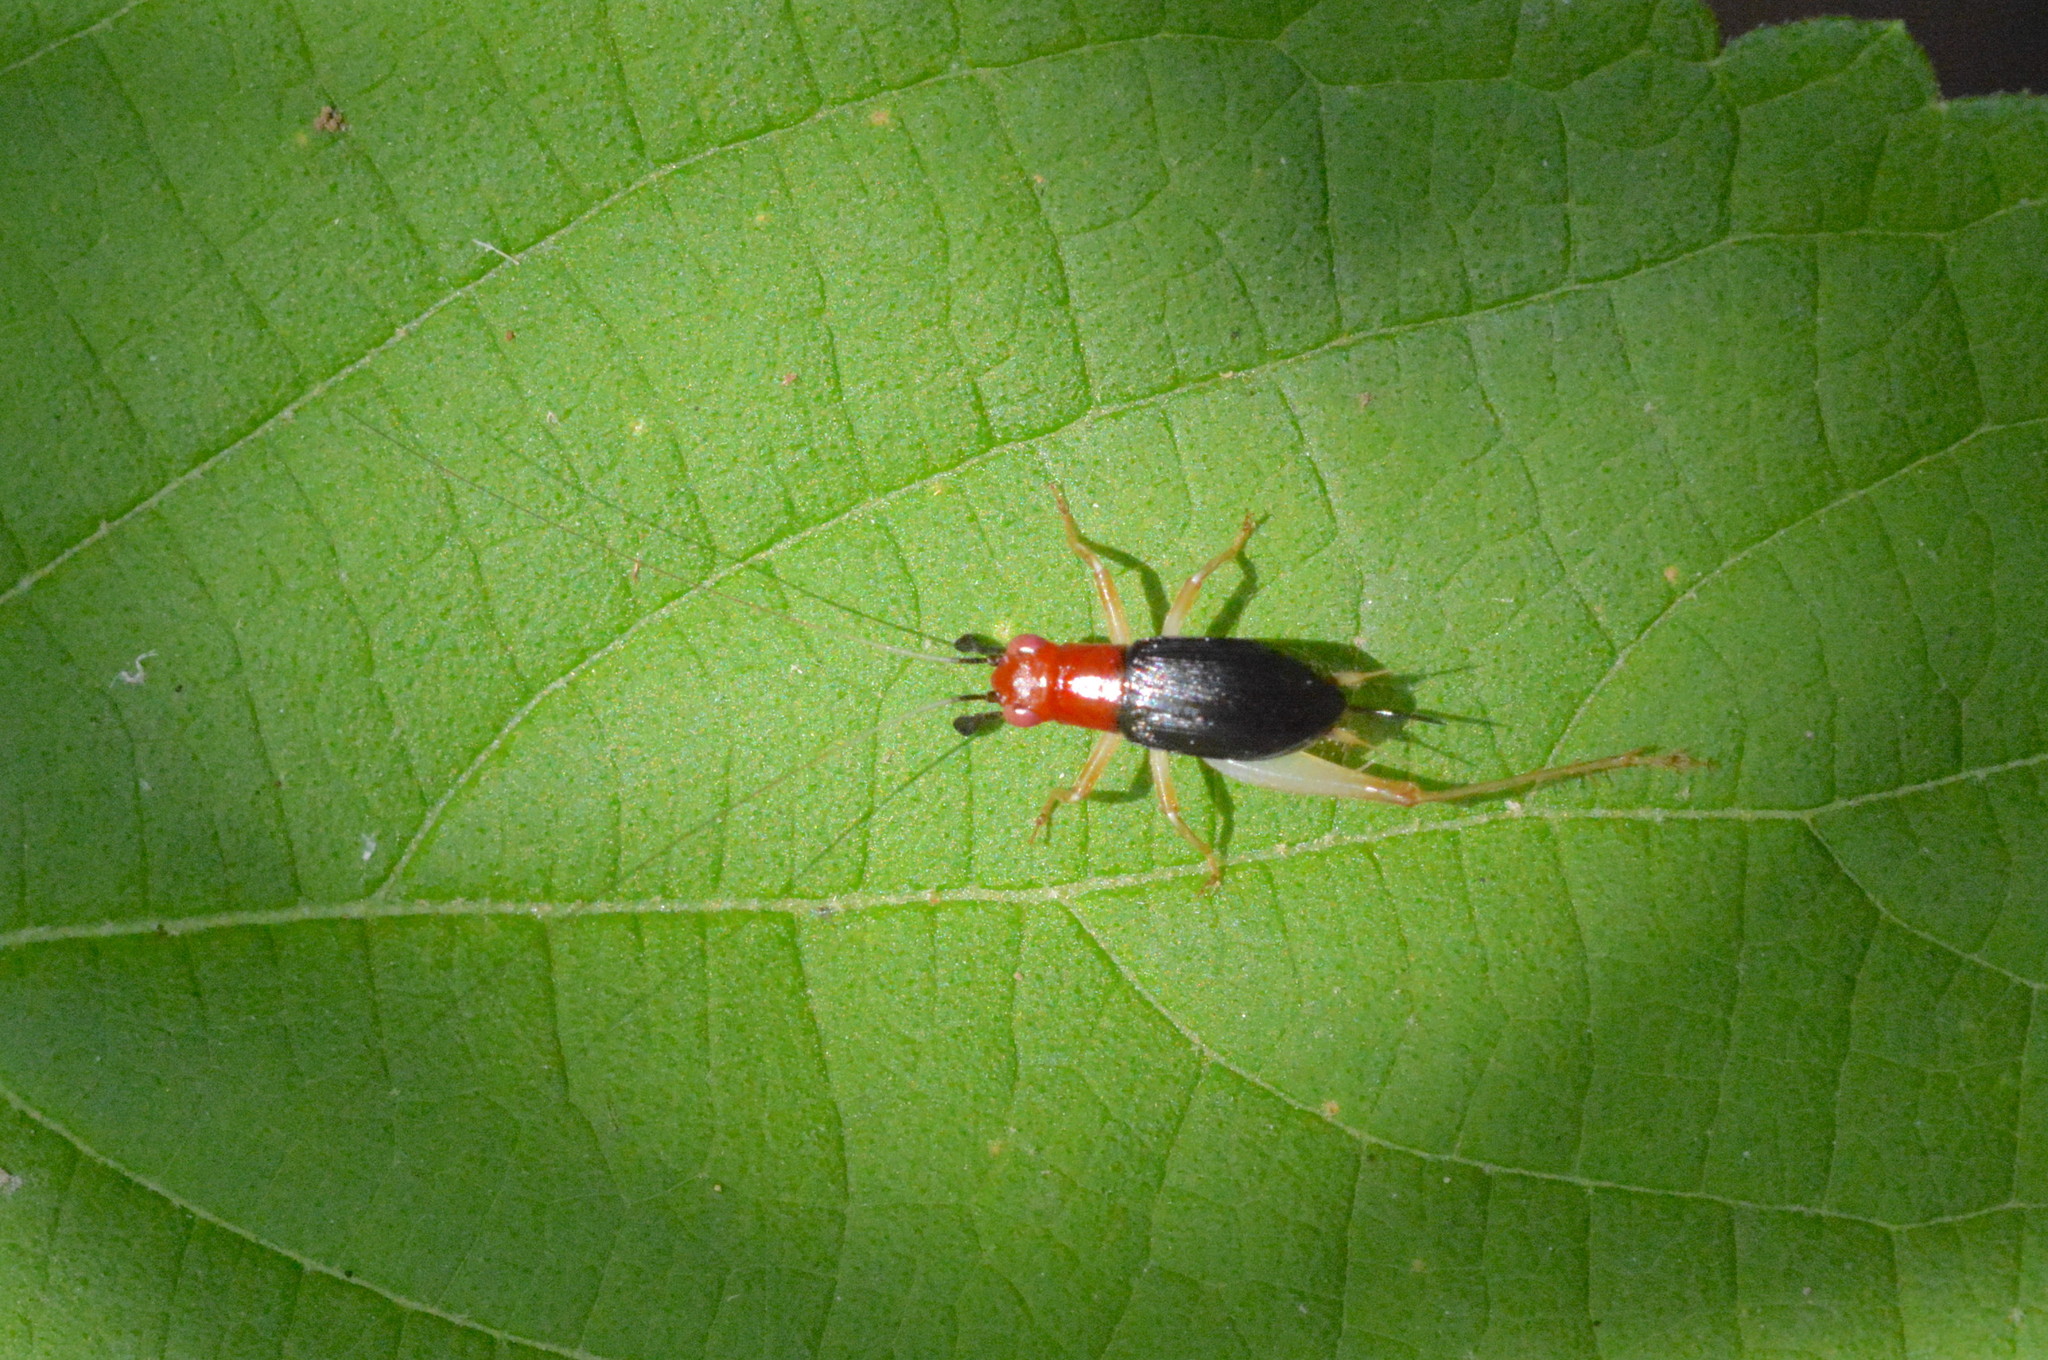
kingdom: Animalia
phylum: Arthropoda
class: Insecta
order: Orthoptera
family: Trigonidiidae
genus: Phyllopalpus
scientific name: Phyllopalpus pulchellus
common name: Handsome trig
